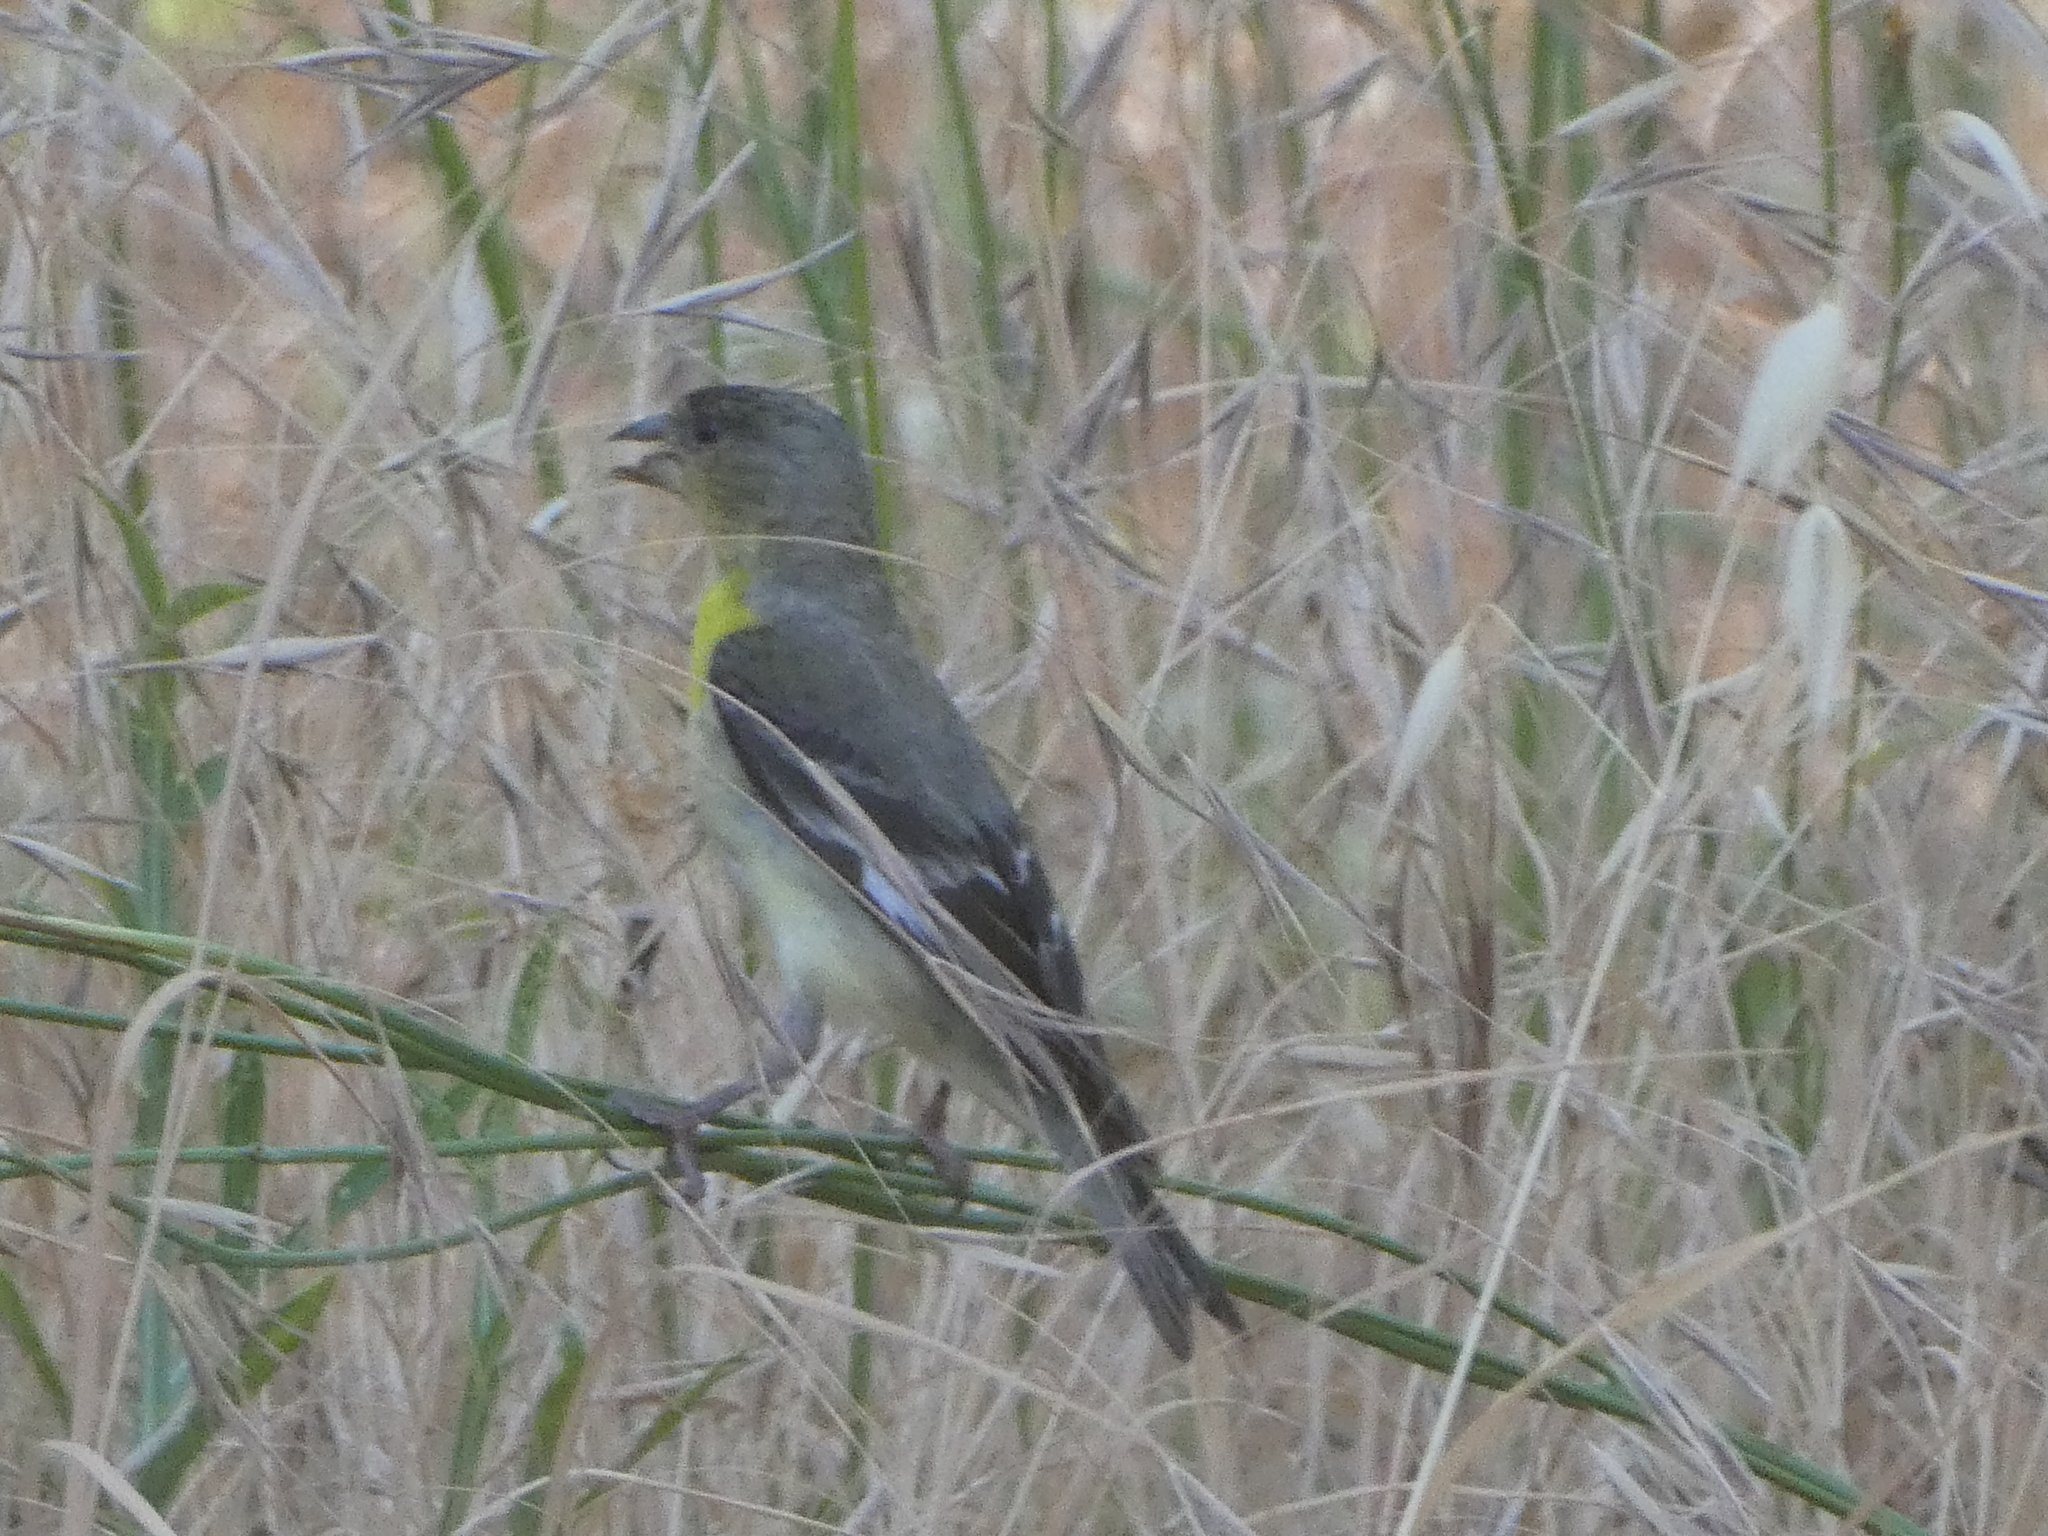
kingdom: Animalia
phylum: Chordata
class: Aves
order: Passeriformes
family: Fringillidae
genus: Spinus
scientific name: Spinus psaltria
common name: Lesser goldfinch
